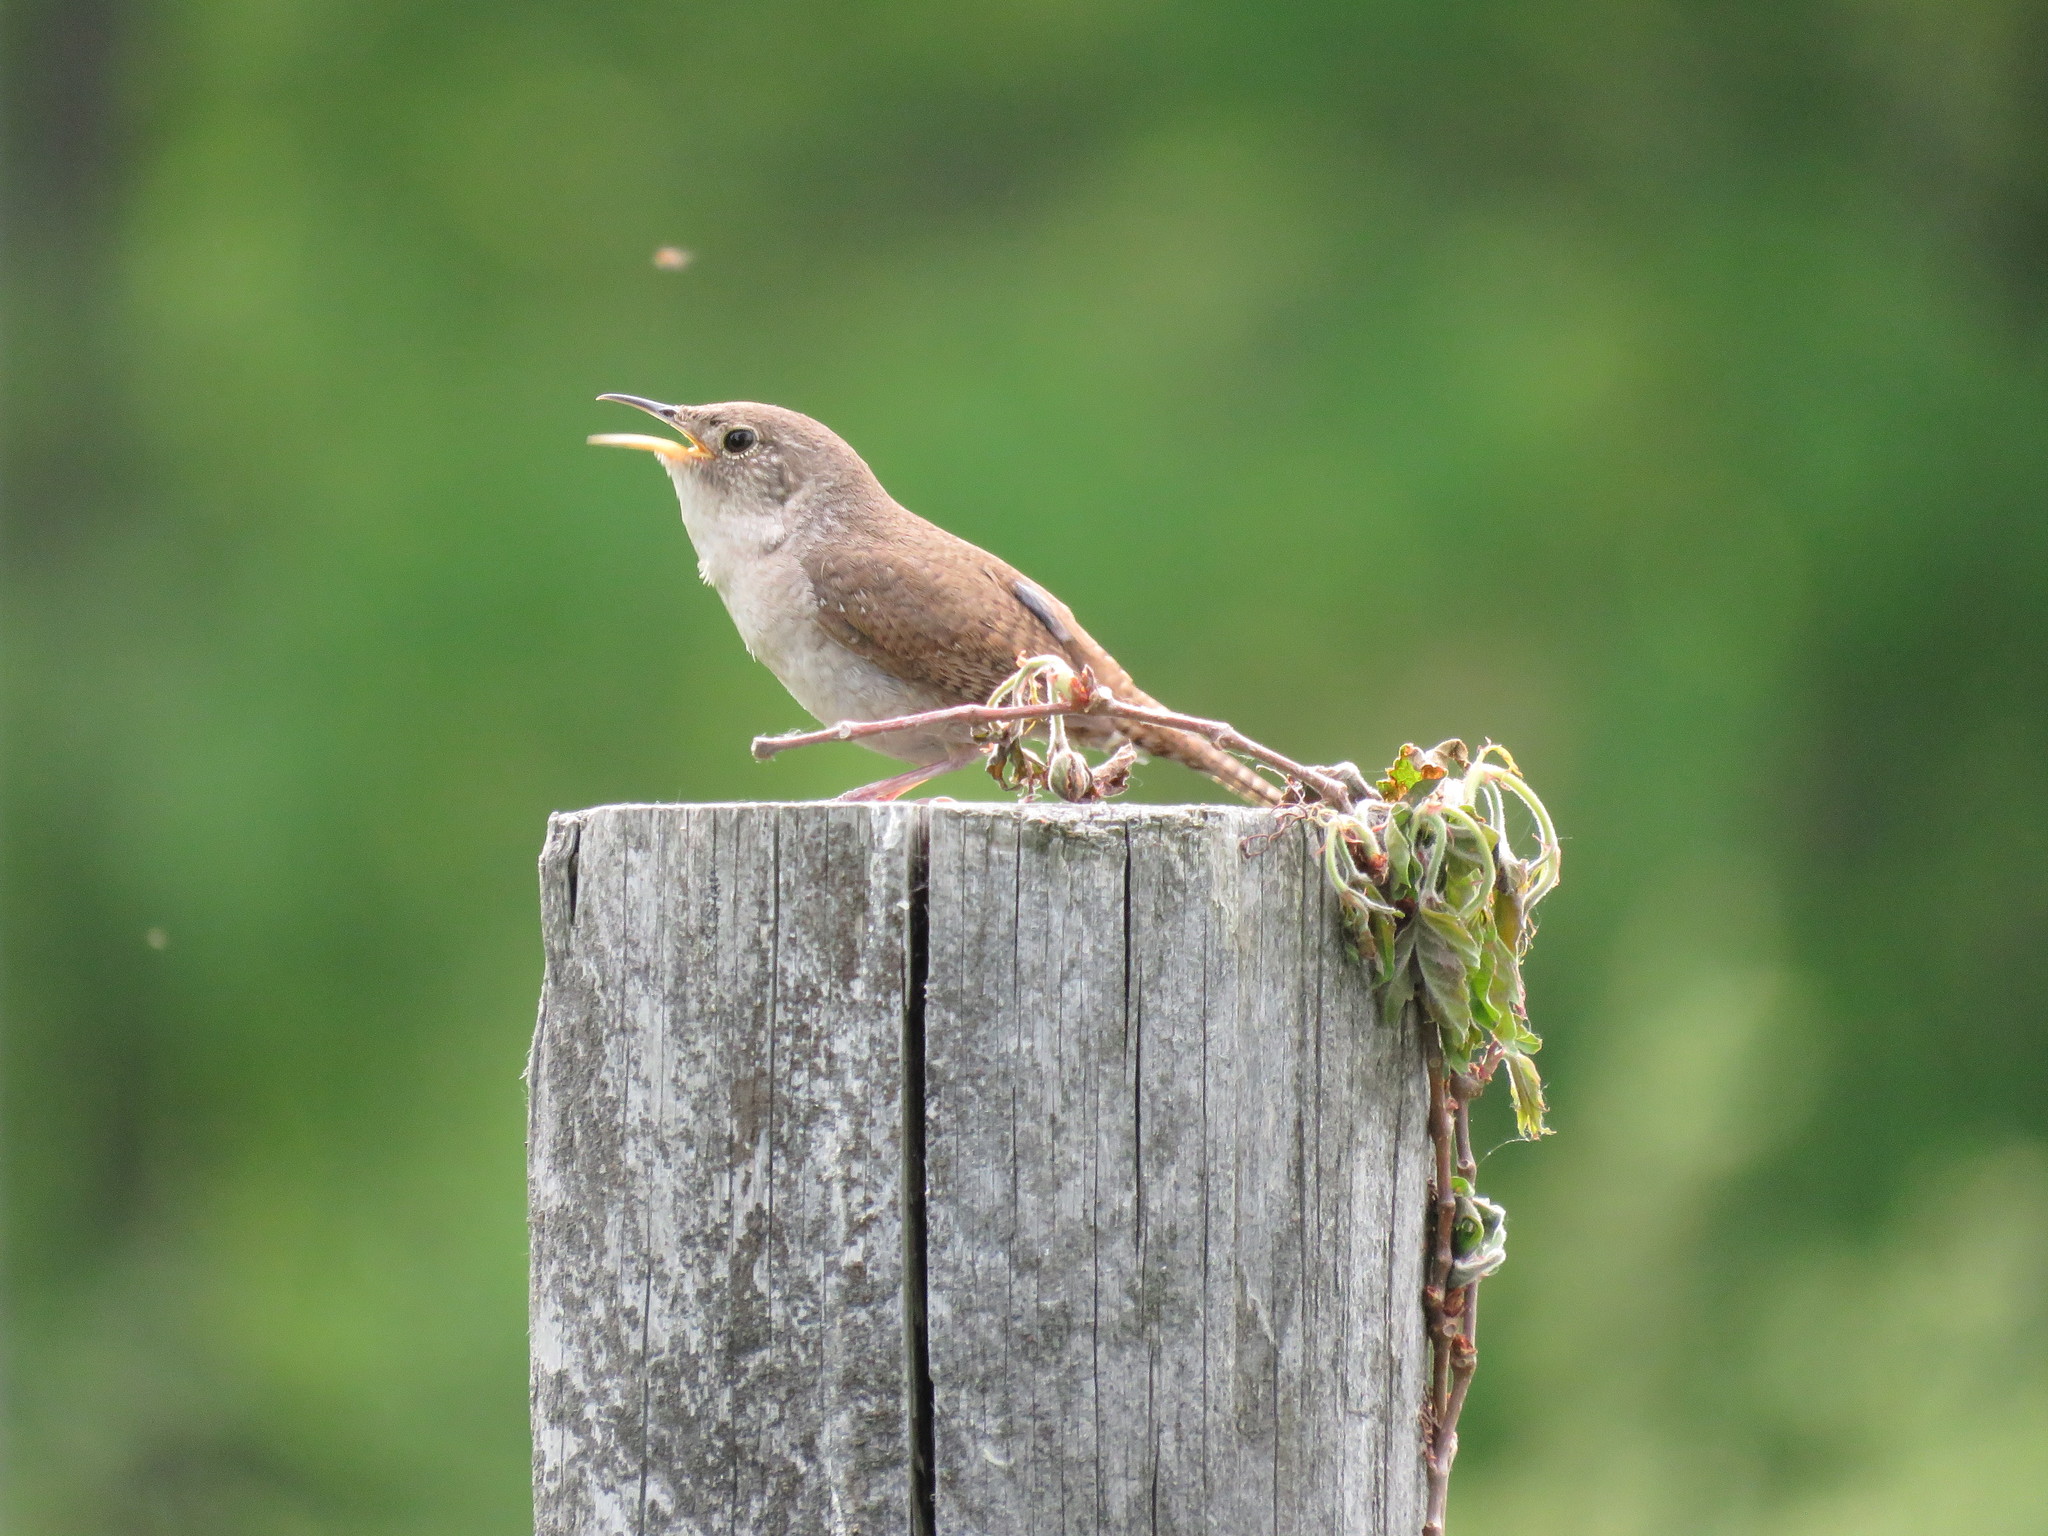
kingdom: Animalia
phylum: Chordata
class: Aves
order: Passeriformes
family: Troglodytidae
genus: Troglodytes
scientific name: Troglodytes aedon
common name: House wren
